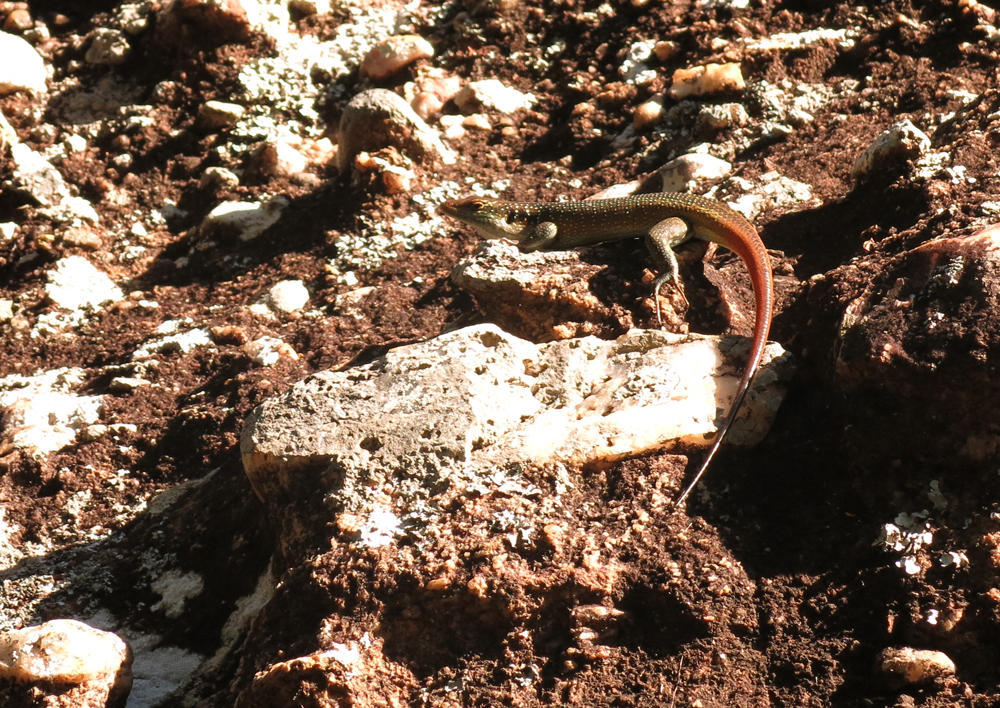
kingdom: Animalia
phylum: Chordata
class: Squamata
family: Scincidae
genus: Trachylepis
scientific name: Trachylepis margaritifera
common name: Rainbow skink
